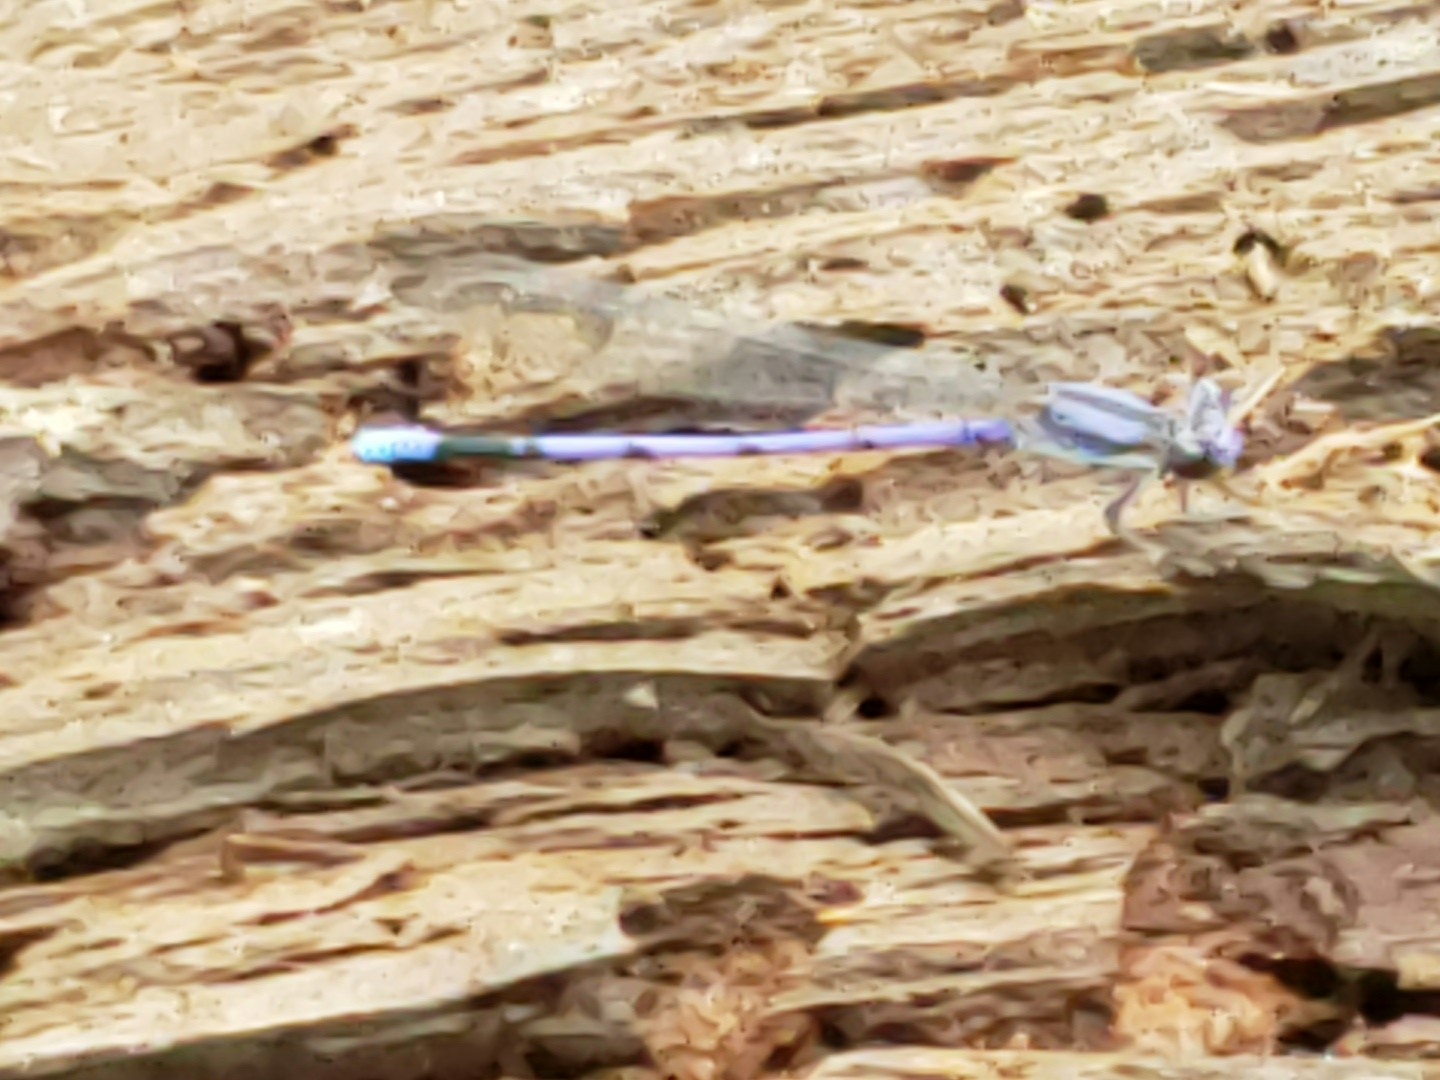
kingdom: Animalia
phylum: Arthropoda
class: Insecta
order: Odonata
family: Coenagrionidae
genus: Argia
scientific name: Argia fumipennis
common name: Variable dancer
